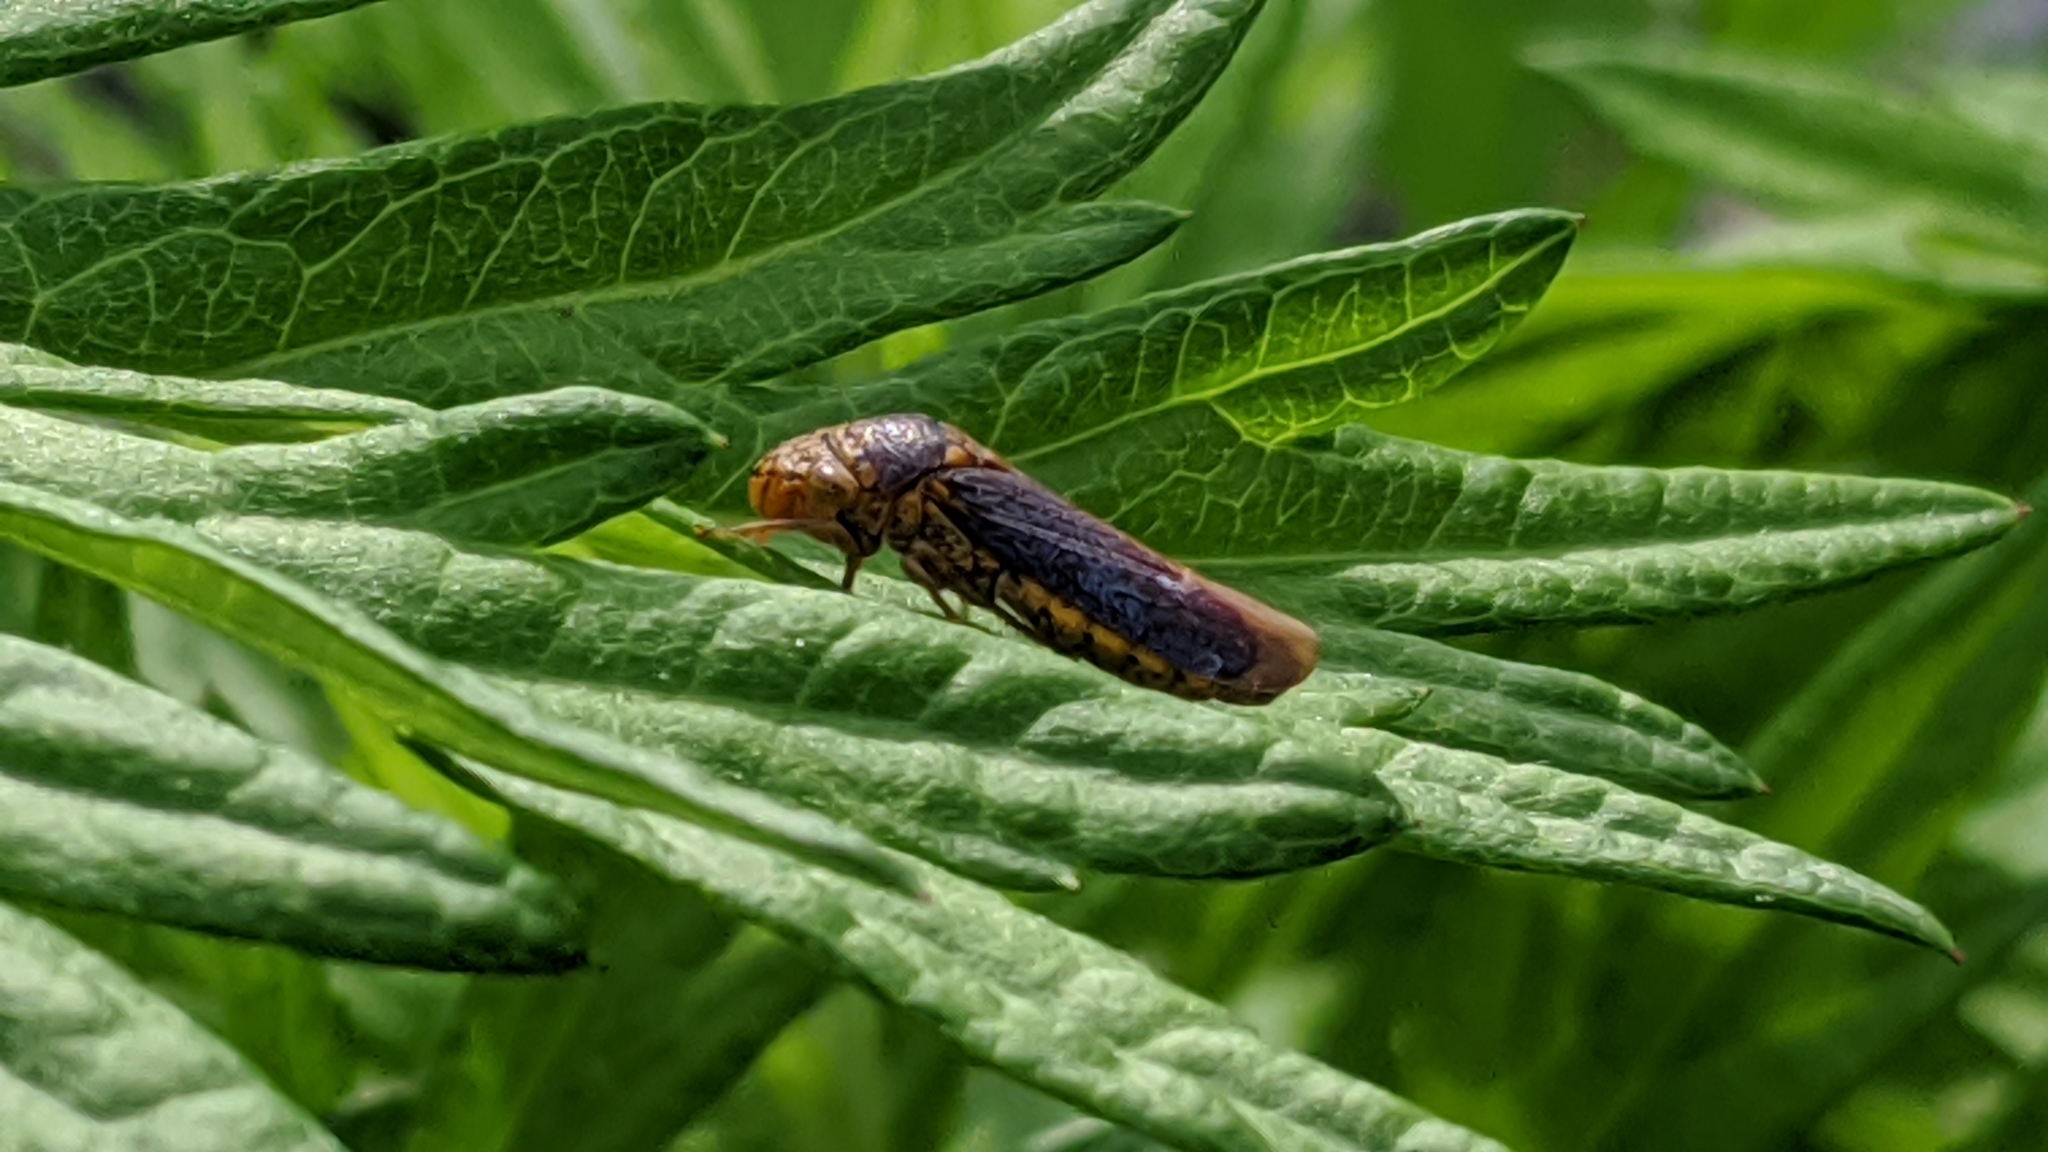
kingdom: Animalia
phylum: Arthropoda
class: Insecta
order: Hemiptera
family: Cicadellidae
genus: Oncometopia
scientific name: Oncometopia orbona
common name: Broad-headed sharpshooter
